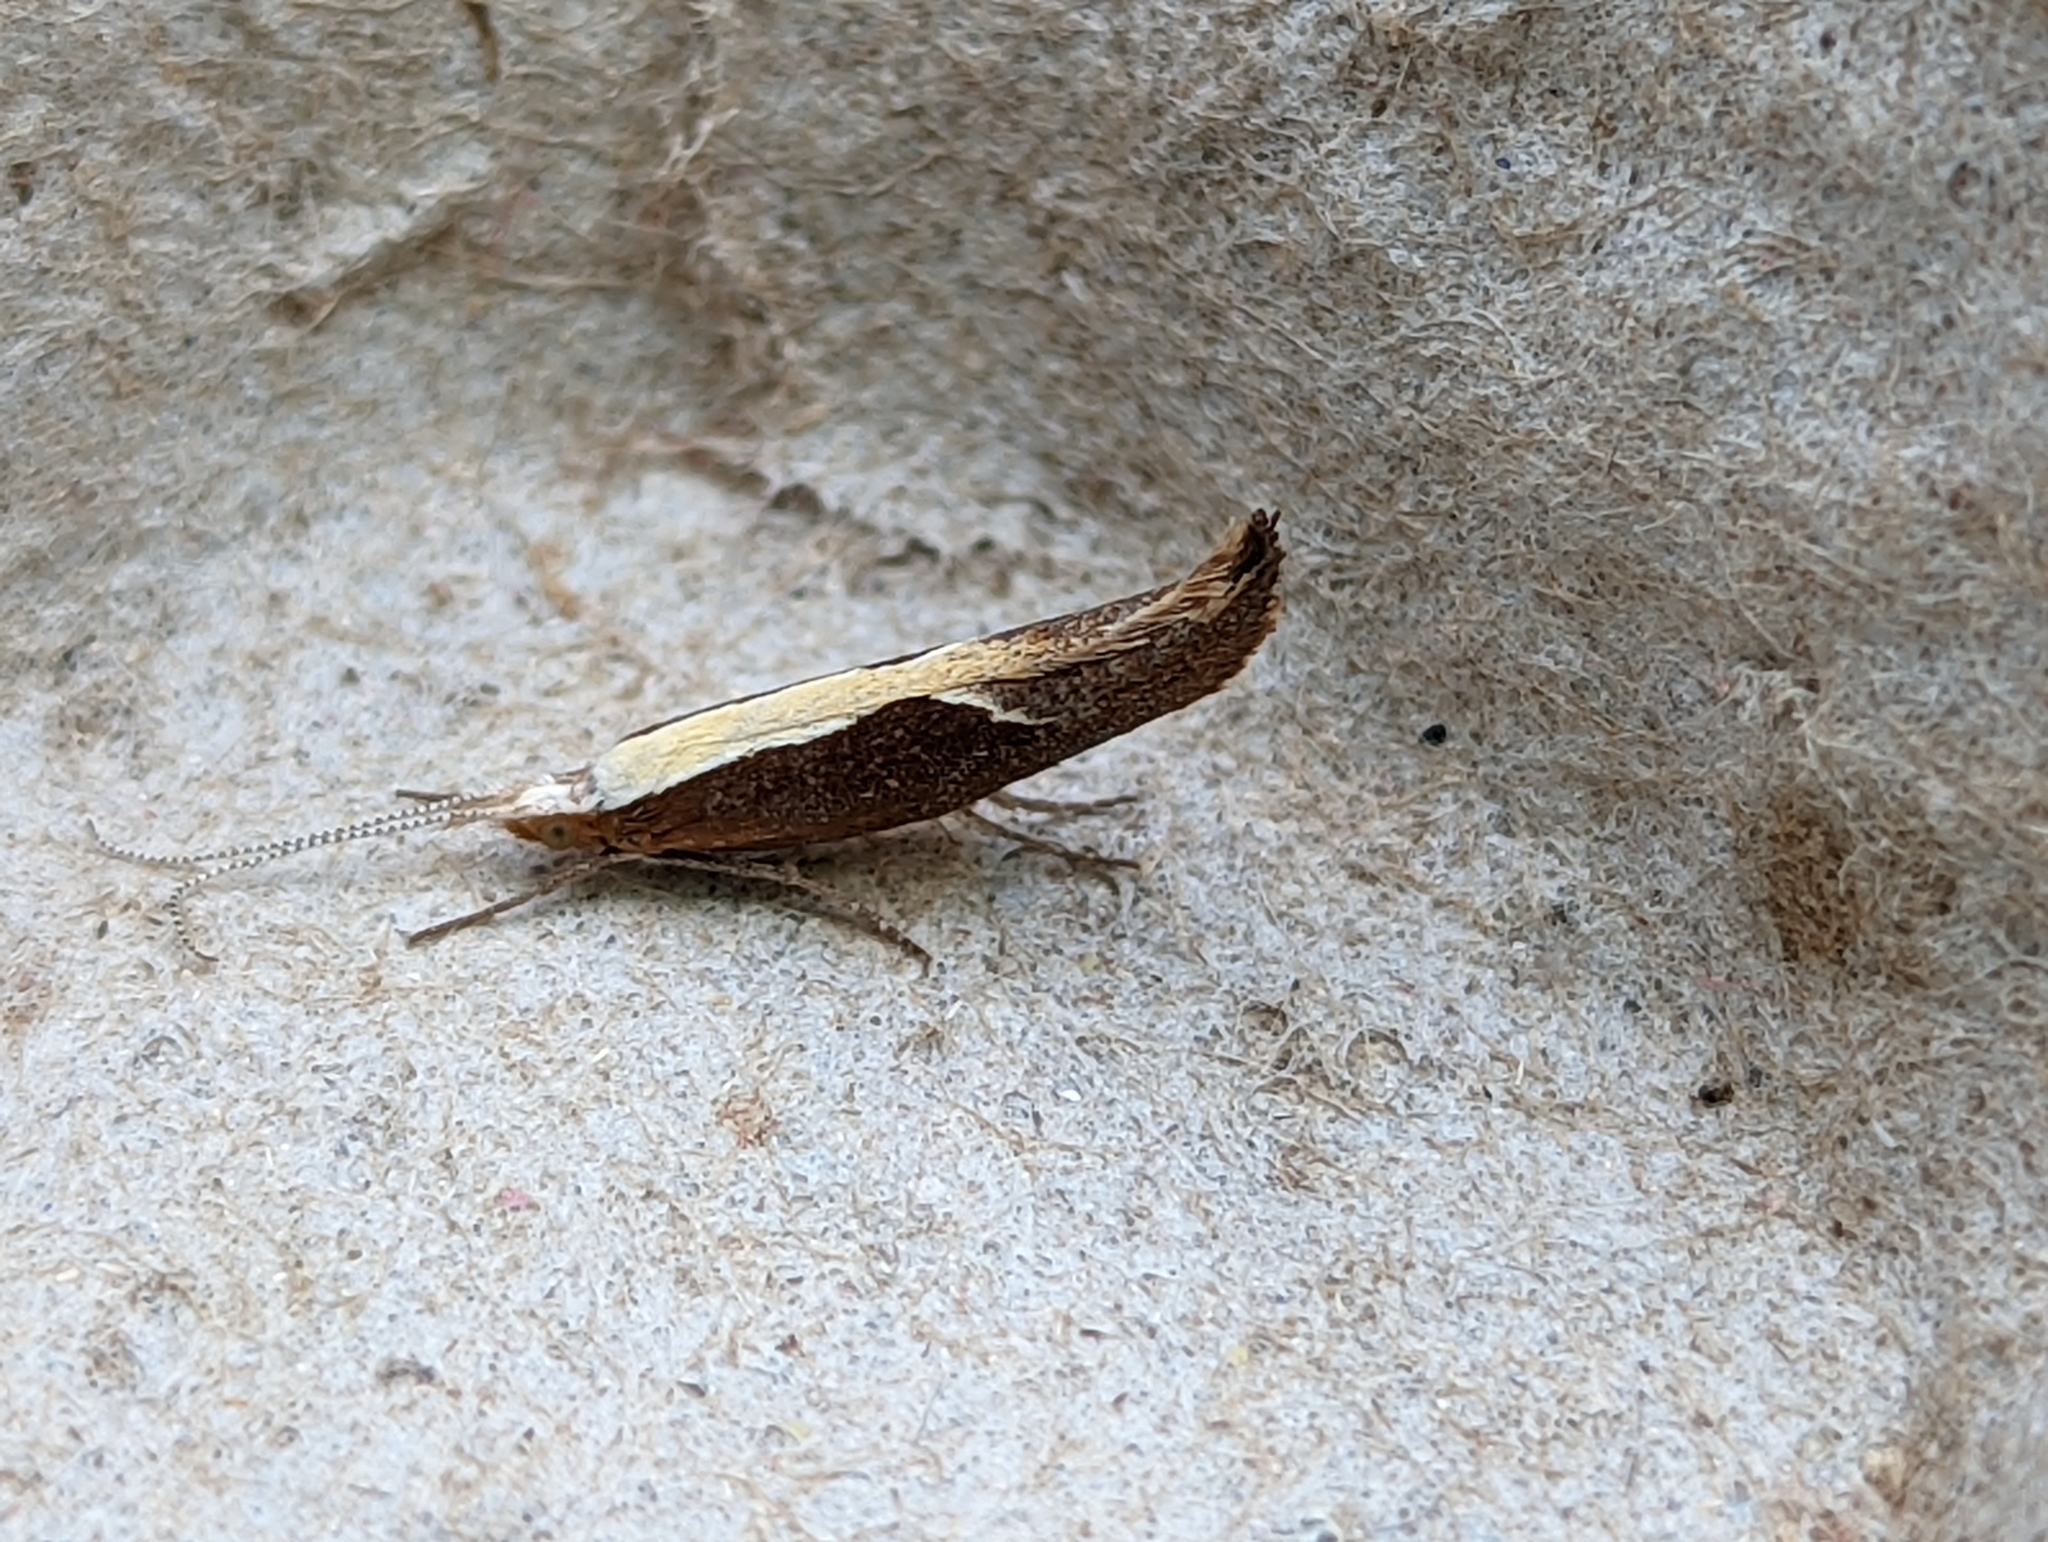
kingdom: Animalia
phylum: Arthropoda
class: Insecta
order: Lepidoptera
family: Ypsolophidae
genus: Ypsolopha
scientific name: Ypsolopha dentella
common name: Honeysuckle moth
